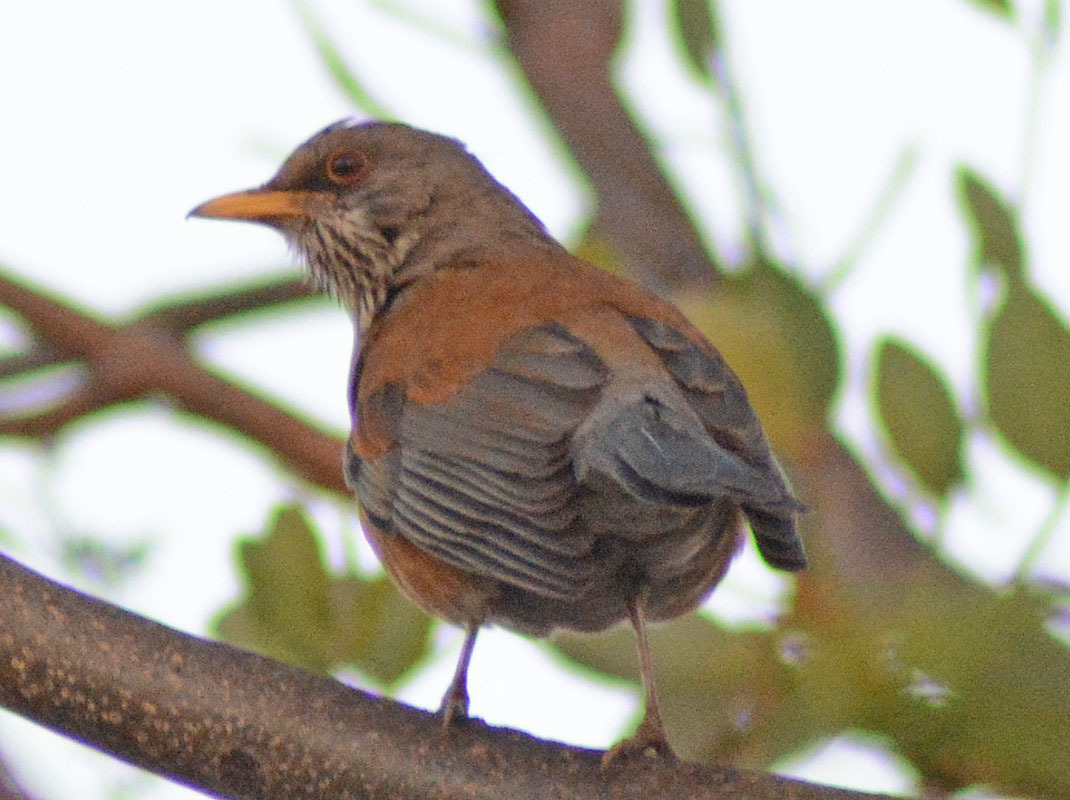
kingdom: Animalia
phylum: Chordata
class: Aves
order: Passeriformes
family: Turdidae
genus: Turdus
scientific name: Turdus rufopalliatus
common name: Rufous-backed robin
